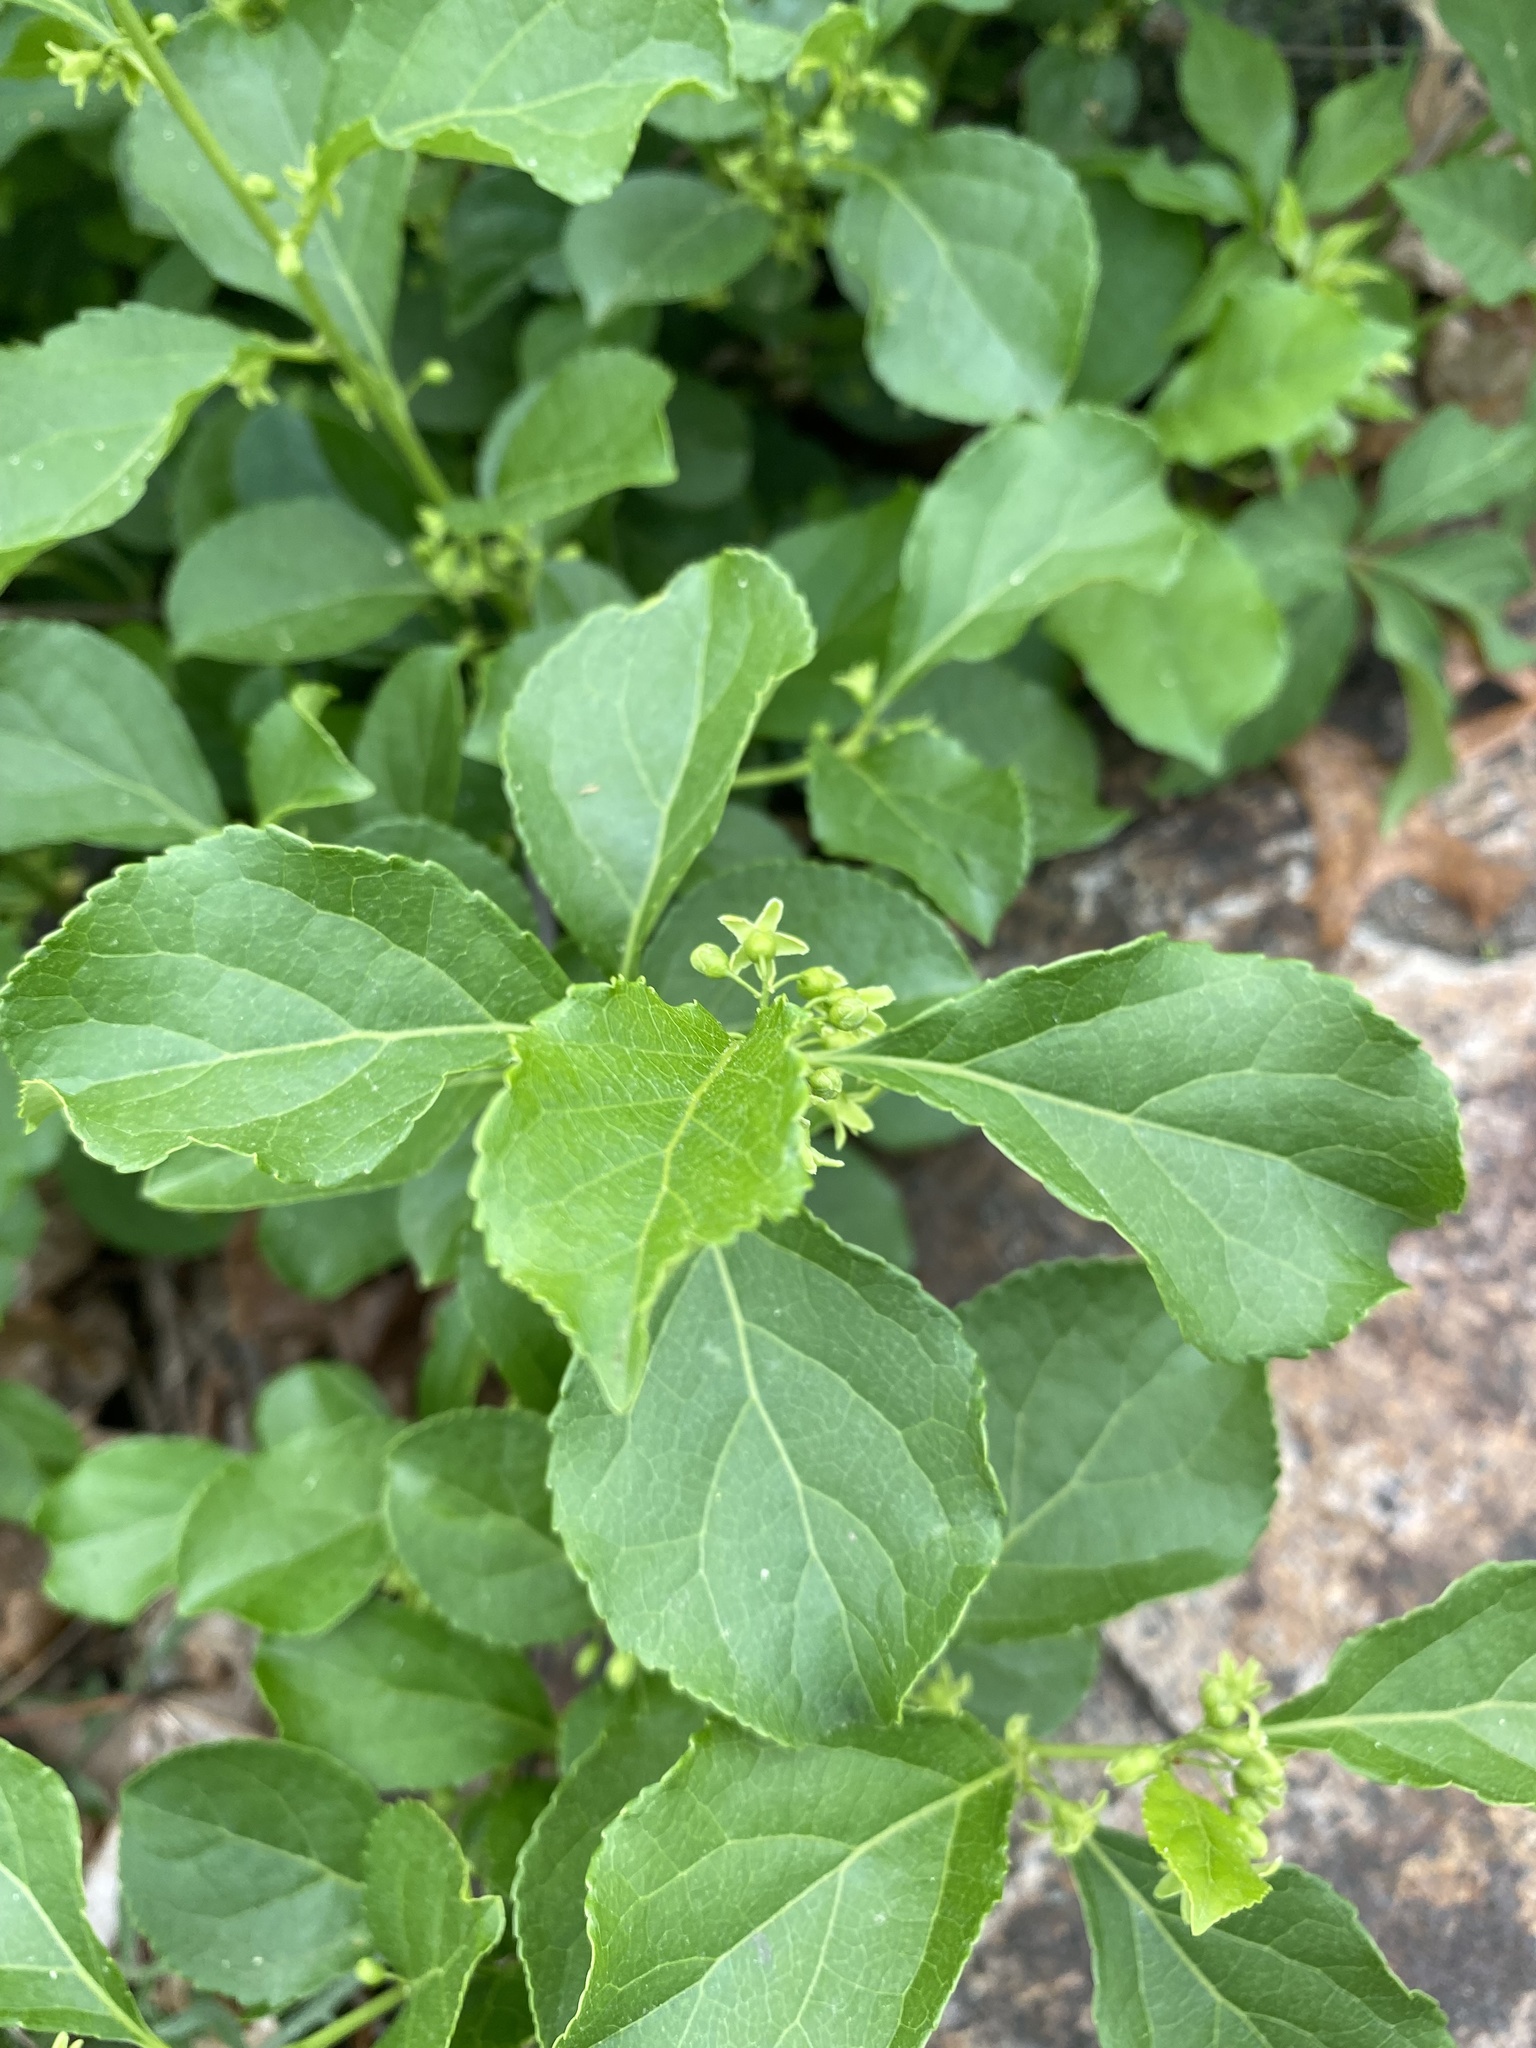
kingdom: Plantae
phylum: Tracheophyta
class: Magnoliopsida
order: Celastrales
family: Celastraceae
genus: Celastrus
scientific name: Celastrus orbiculatus
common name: Oriental bittersweet
